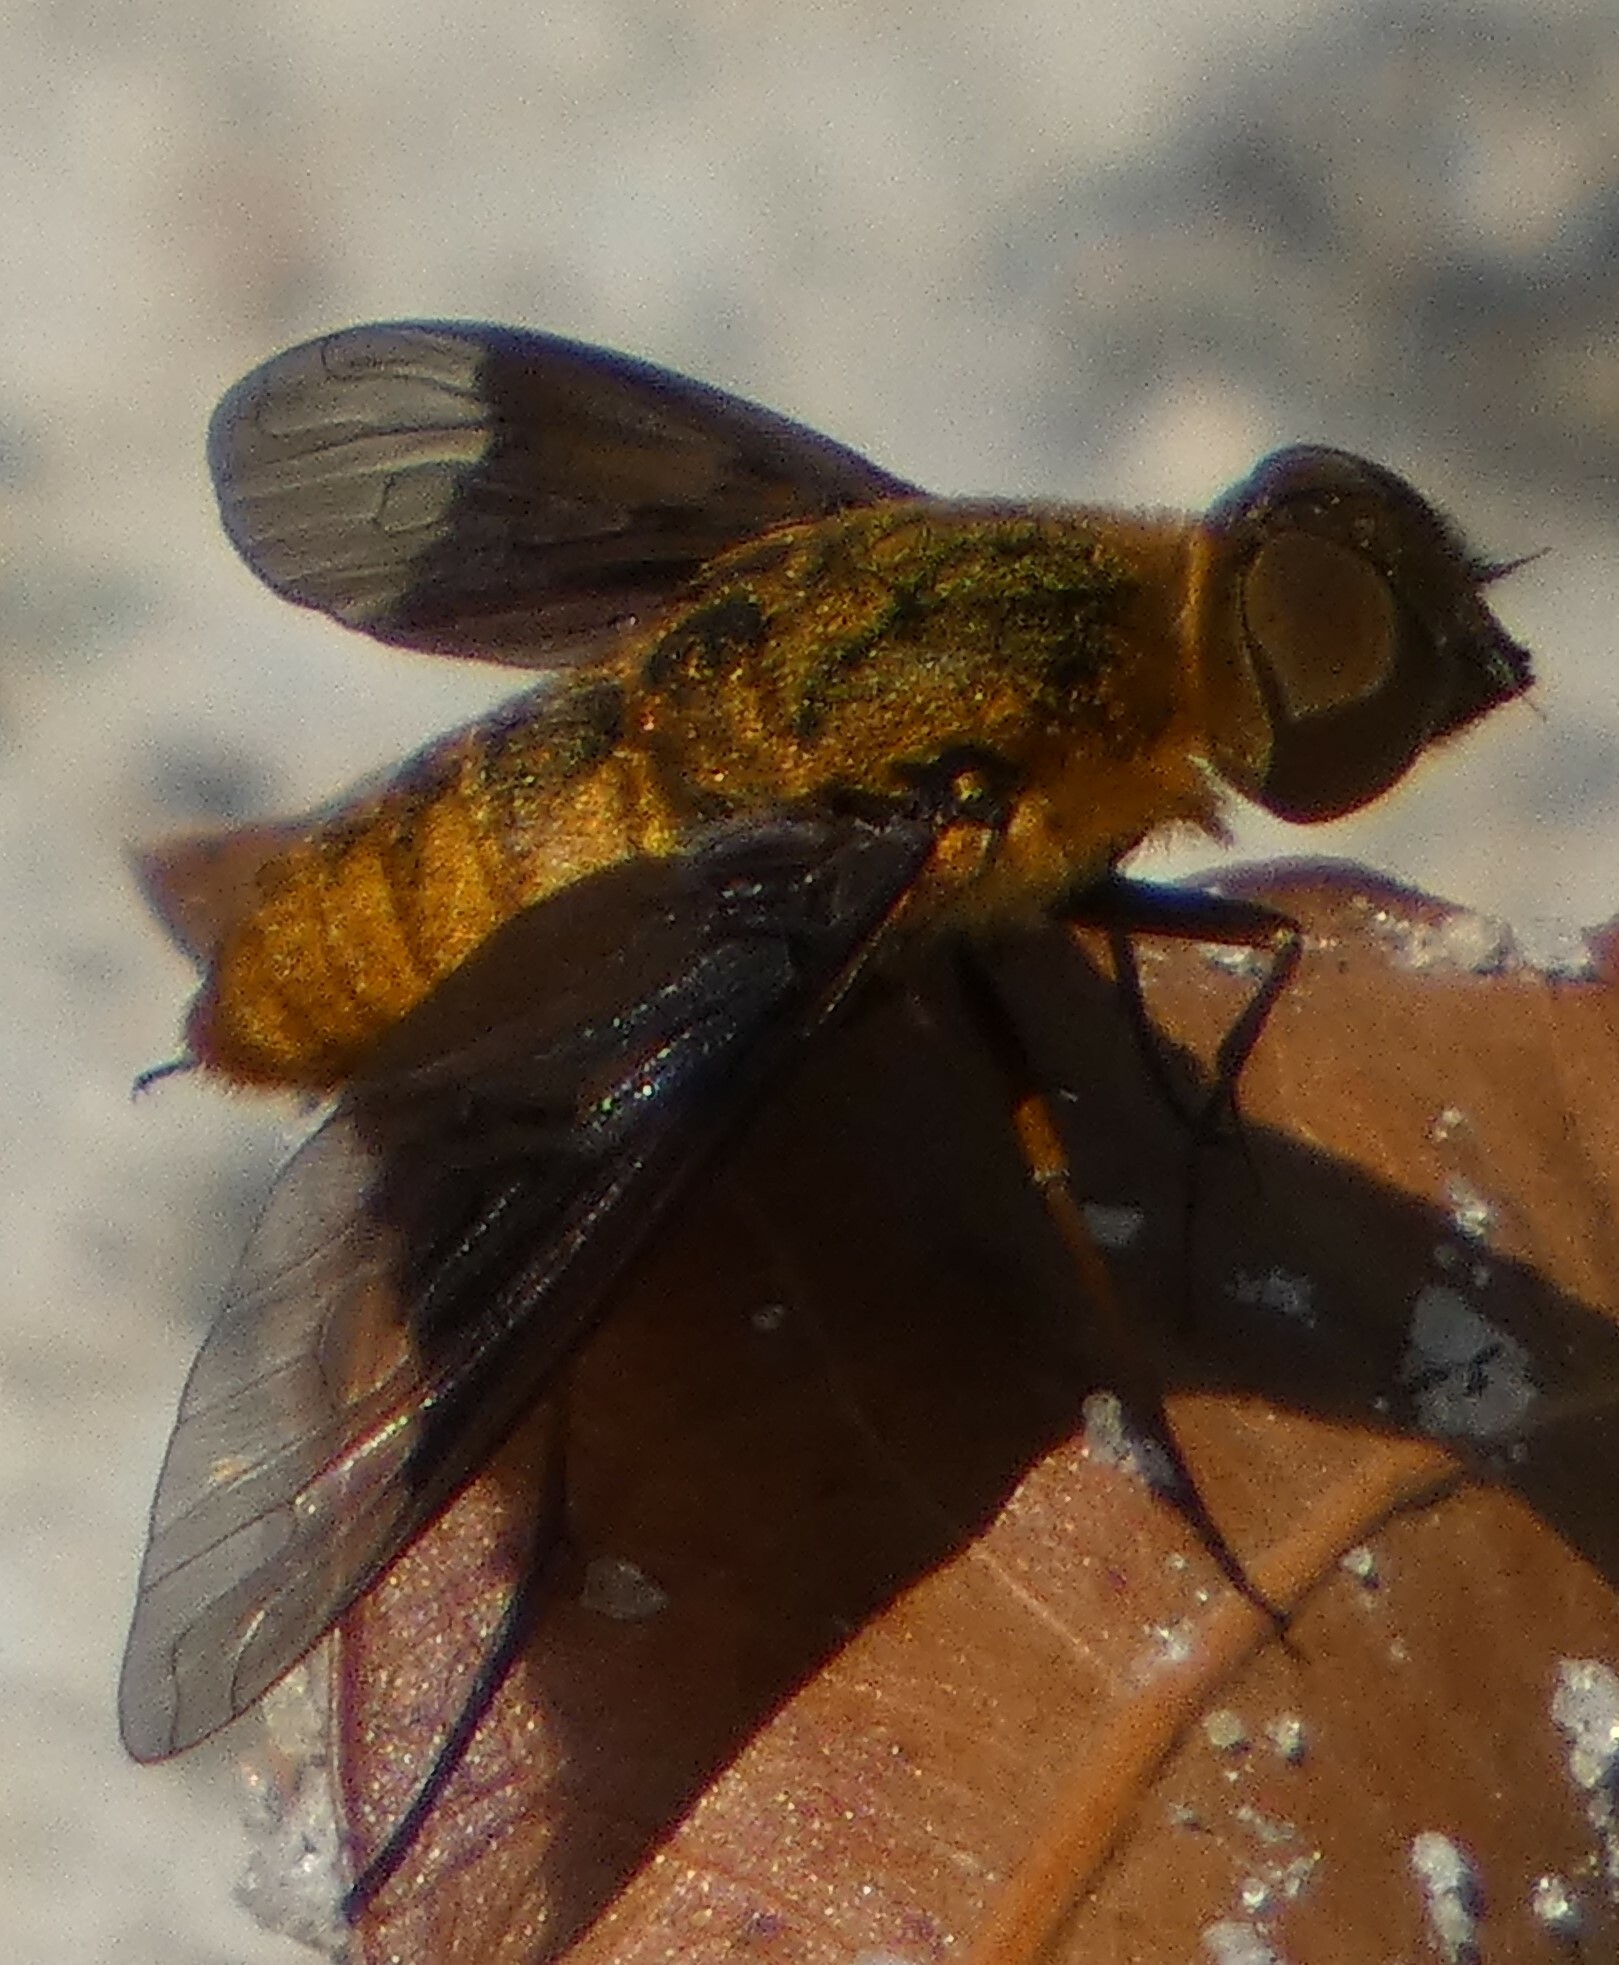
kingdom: Animalia
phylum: Arthropoda
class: Insecta
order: Diptera
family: Bombyliidae
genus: Chrysanthrax
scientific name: Chrysanthrax cypris
